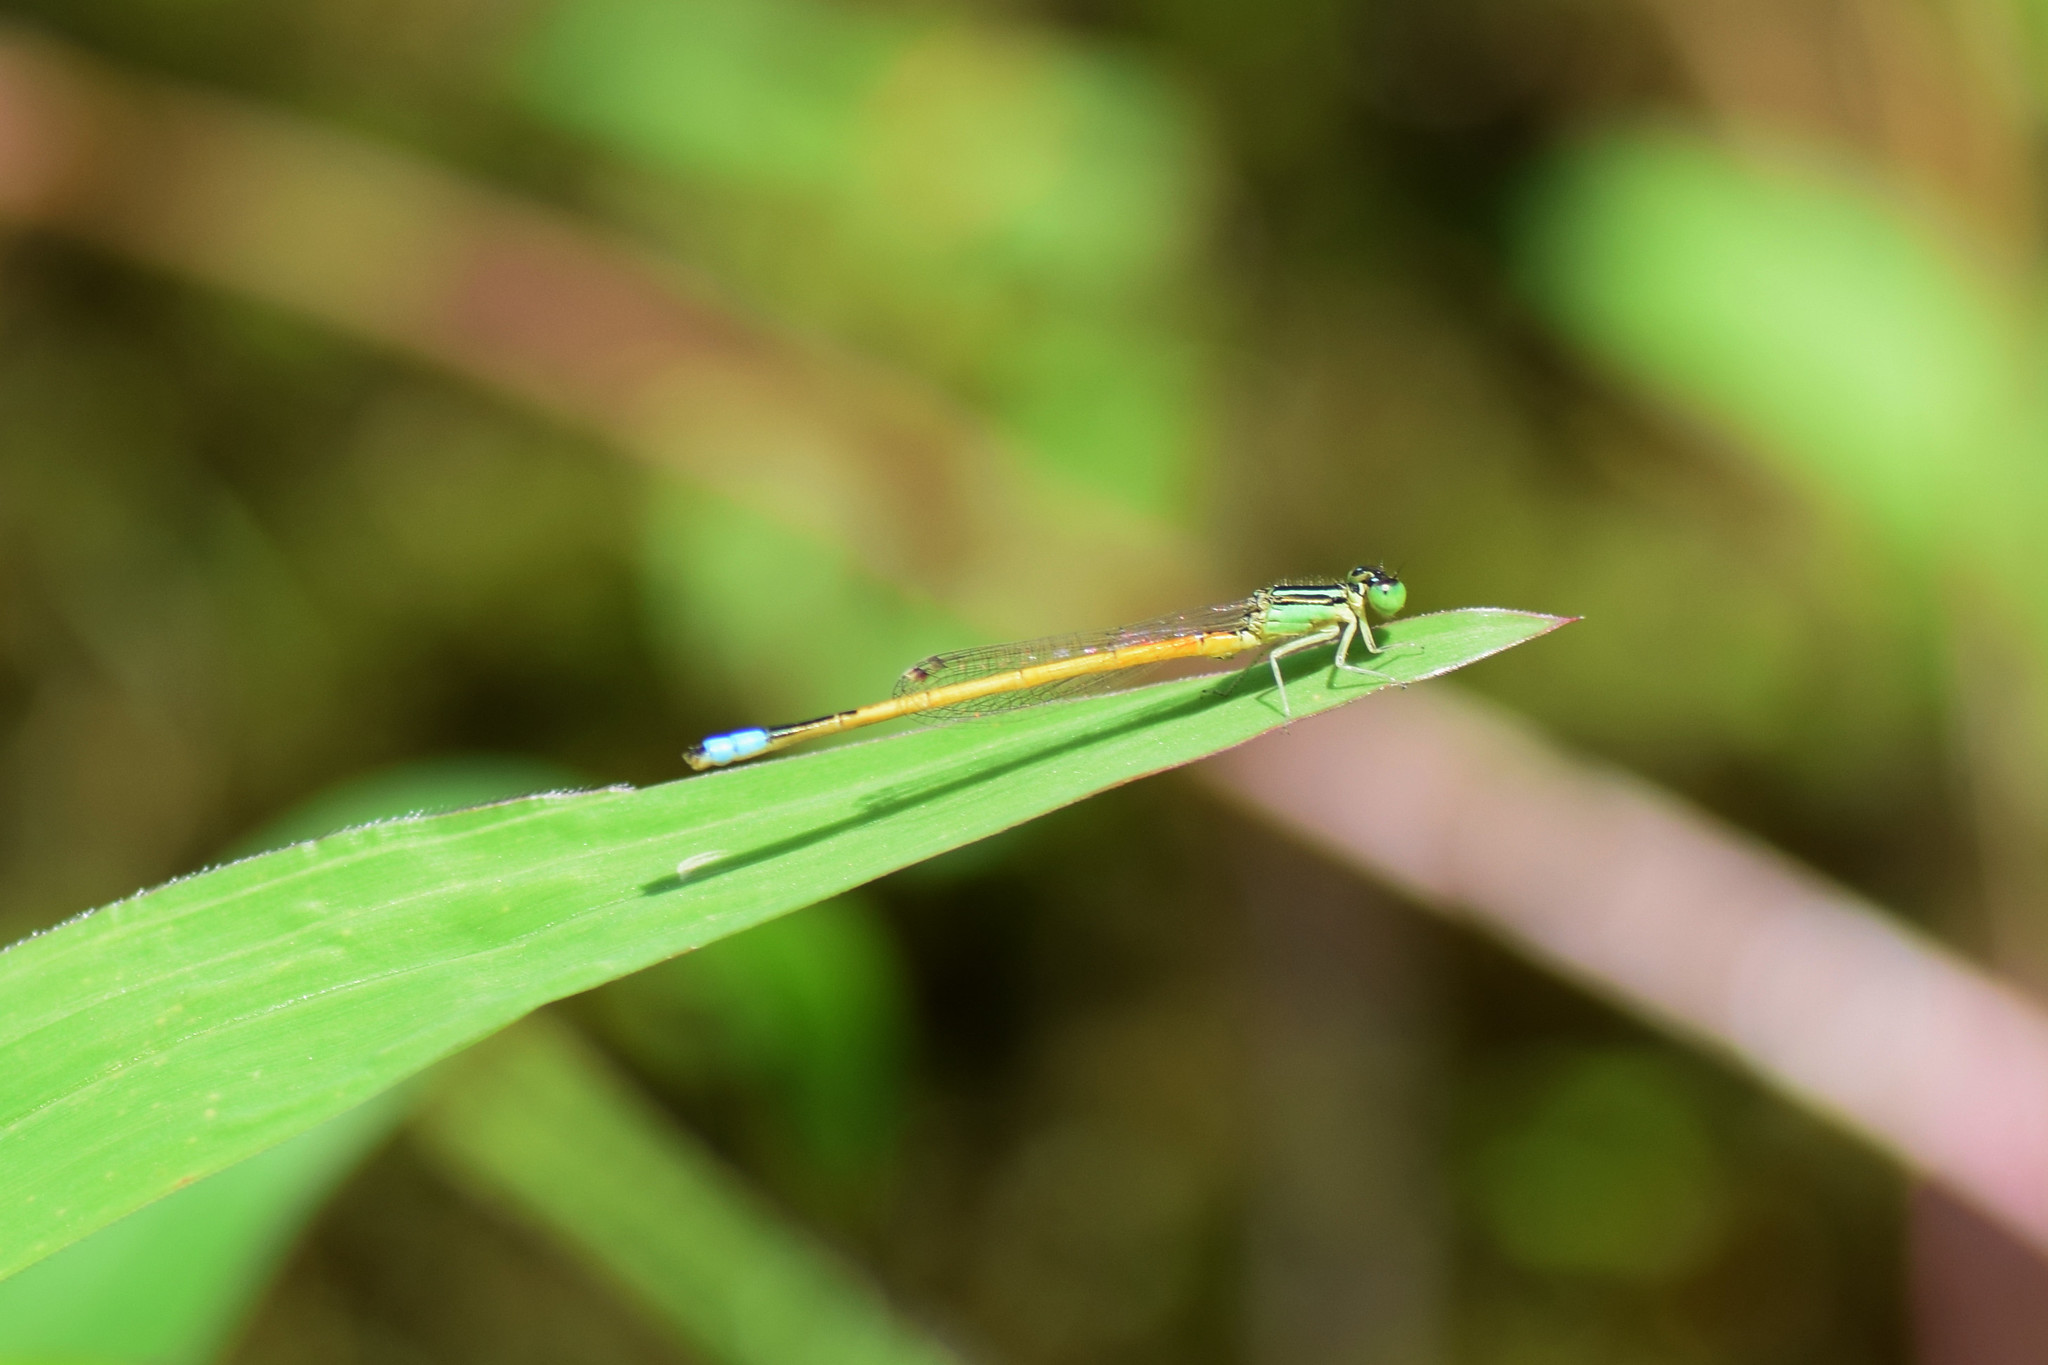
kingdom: Animalia
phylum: Arthropoda
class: Insecta
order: Odonata
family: Coenagrionidae
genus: Ischnura
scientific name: Ischnura rubilio
